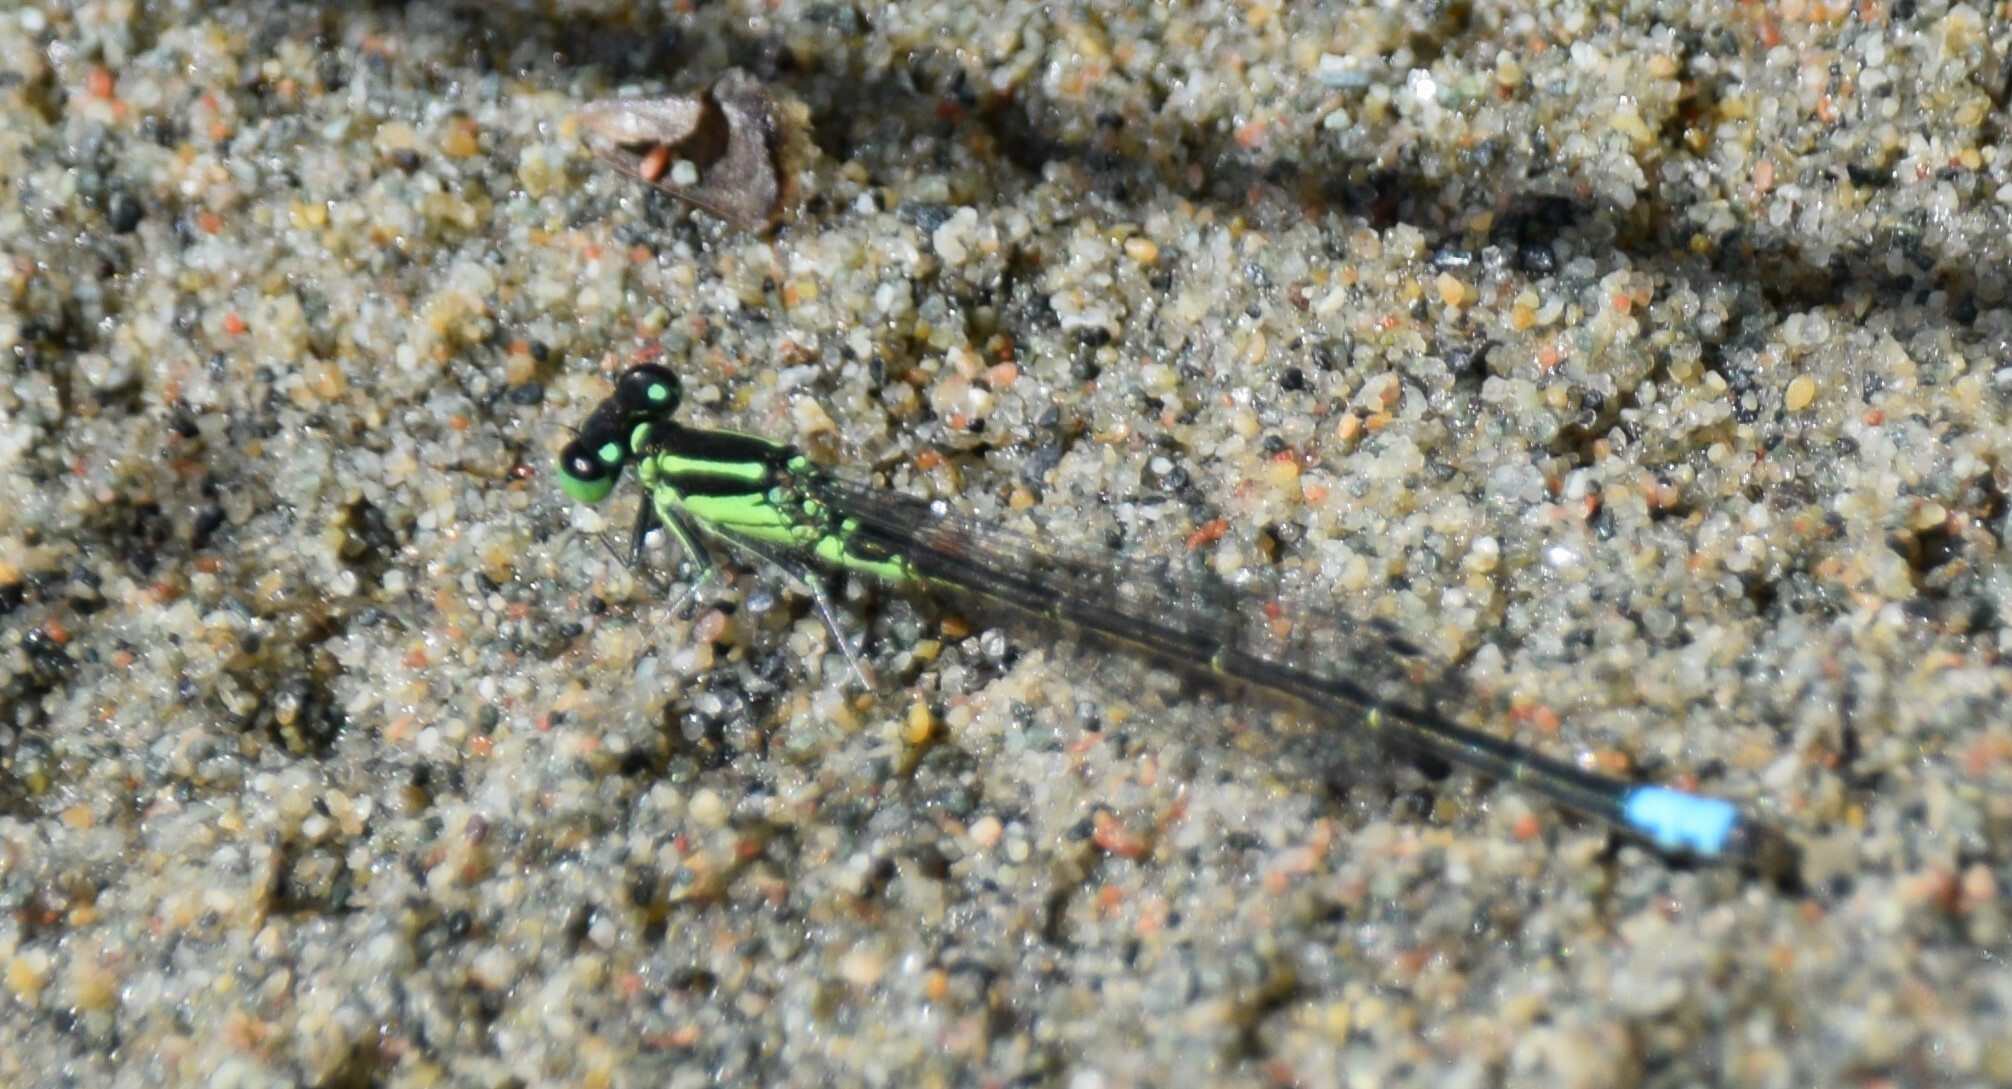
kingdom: Animalia
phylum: Arthropoda
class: Insecta
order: Odonata
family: Coenagrionidae
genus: Ischnura
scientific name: Ischnura verticalis
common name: Eastern forktail
